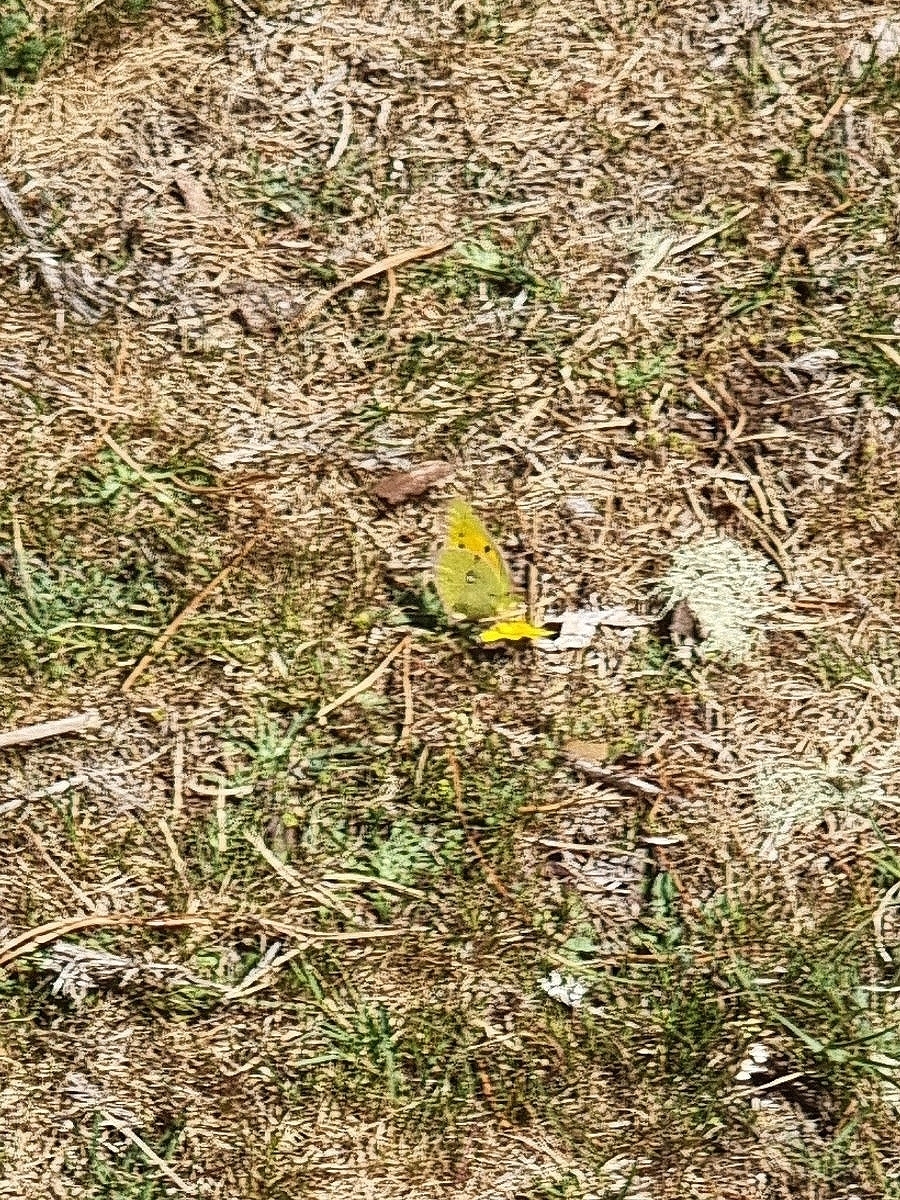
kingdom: Animalia
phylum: Arthropoda
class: Insecta
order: Lepidoptera
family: Pieridae
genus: Colias
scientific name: Colias croceus
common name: Clouded yellow
